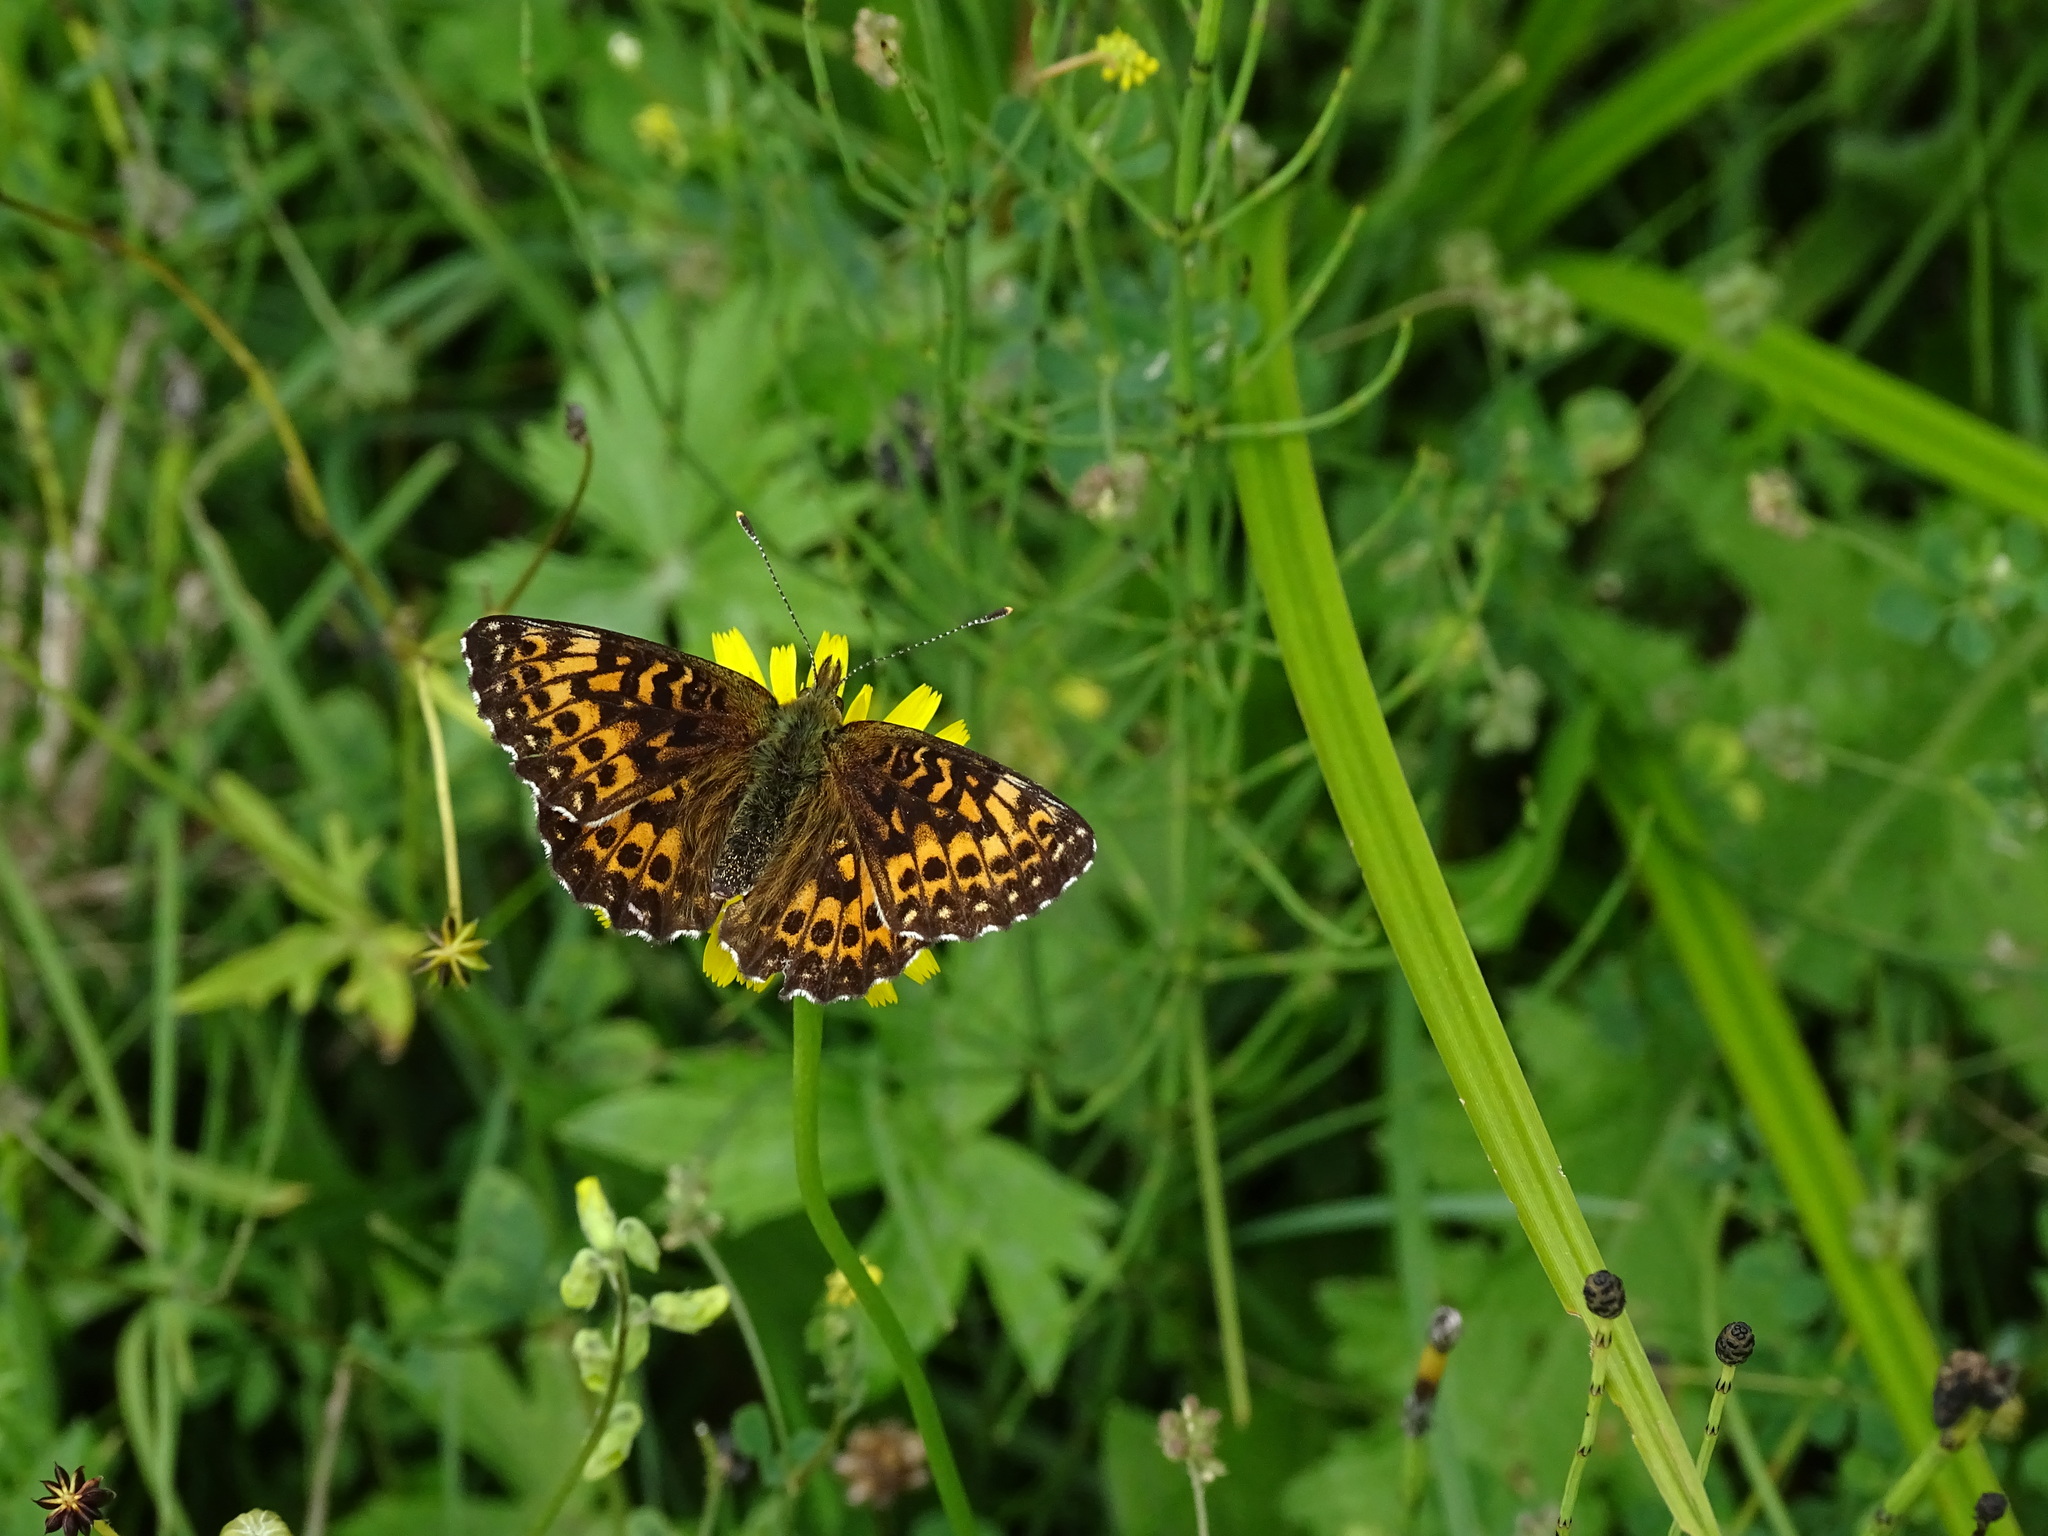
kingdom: Animalia
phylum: Arthropoda
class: Insecta
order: Lepidoptera
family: Nymphalidae
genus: Boloria
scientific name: Boloria titania
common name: Titania's fritillary
